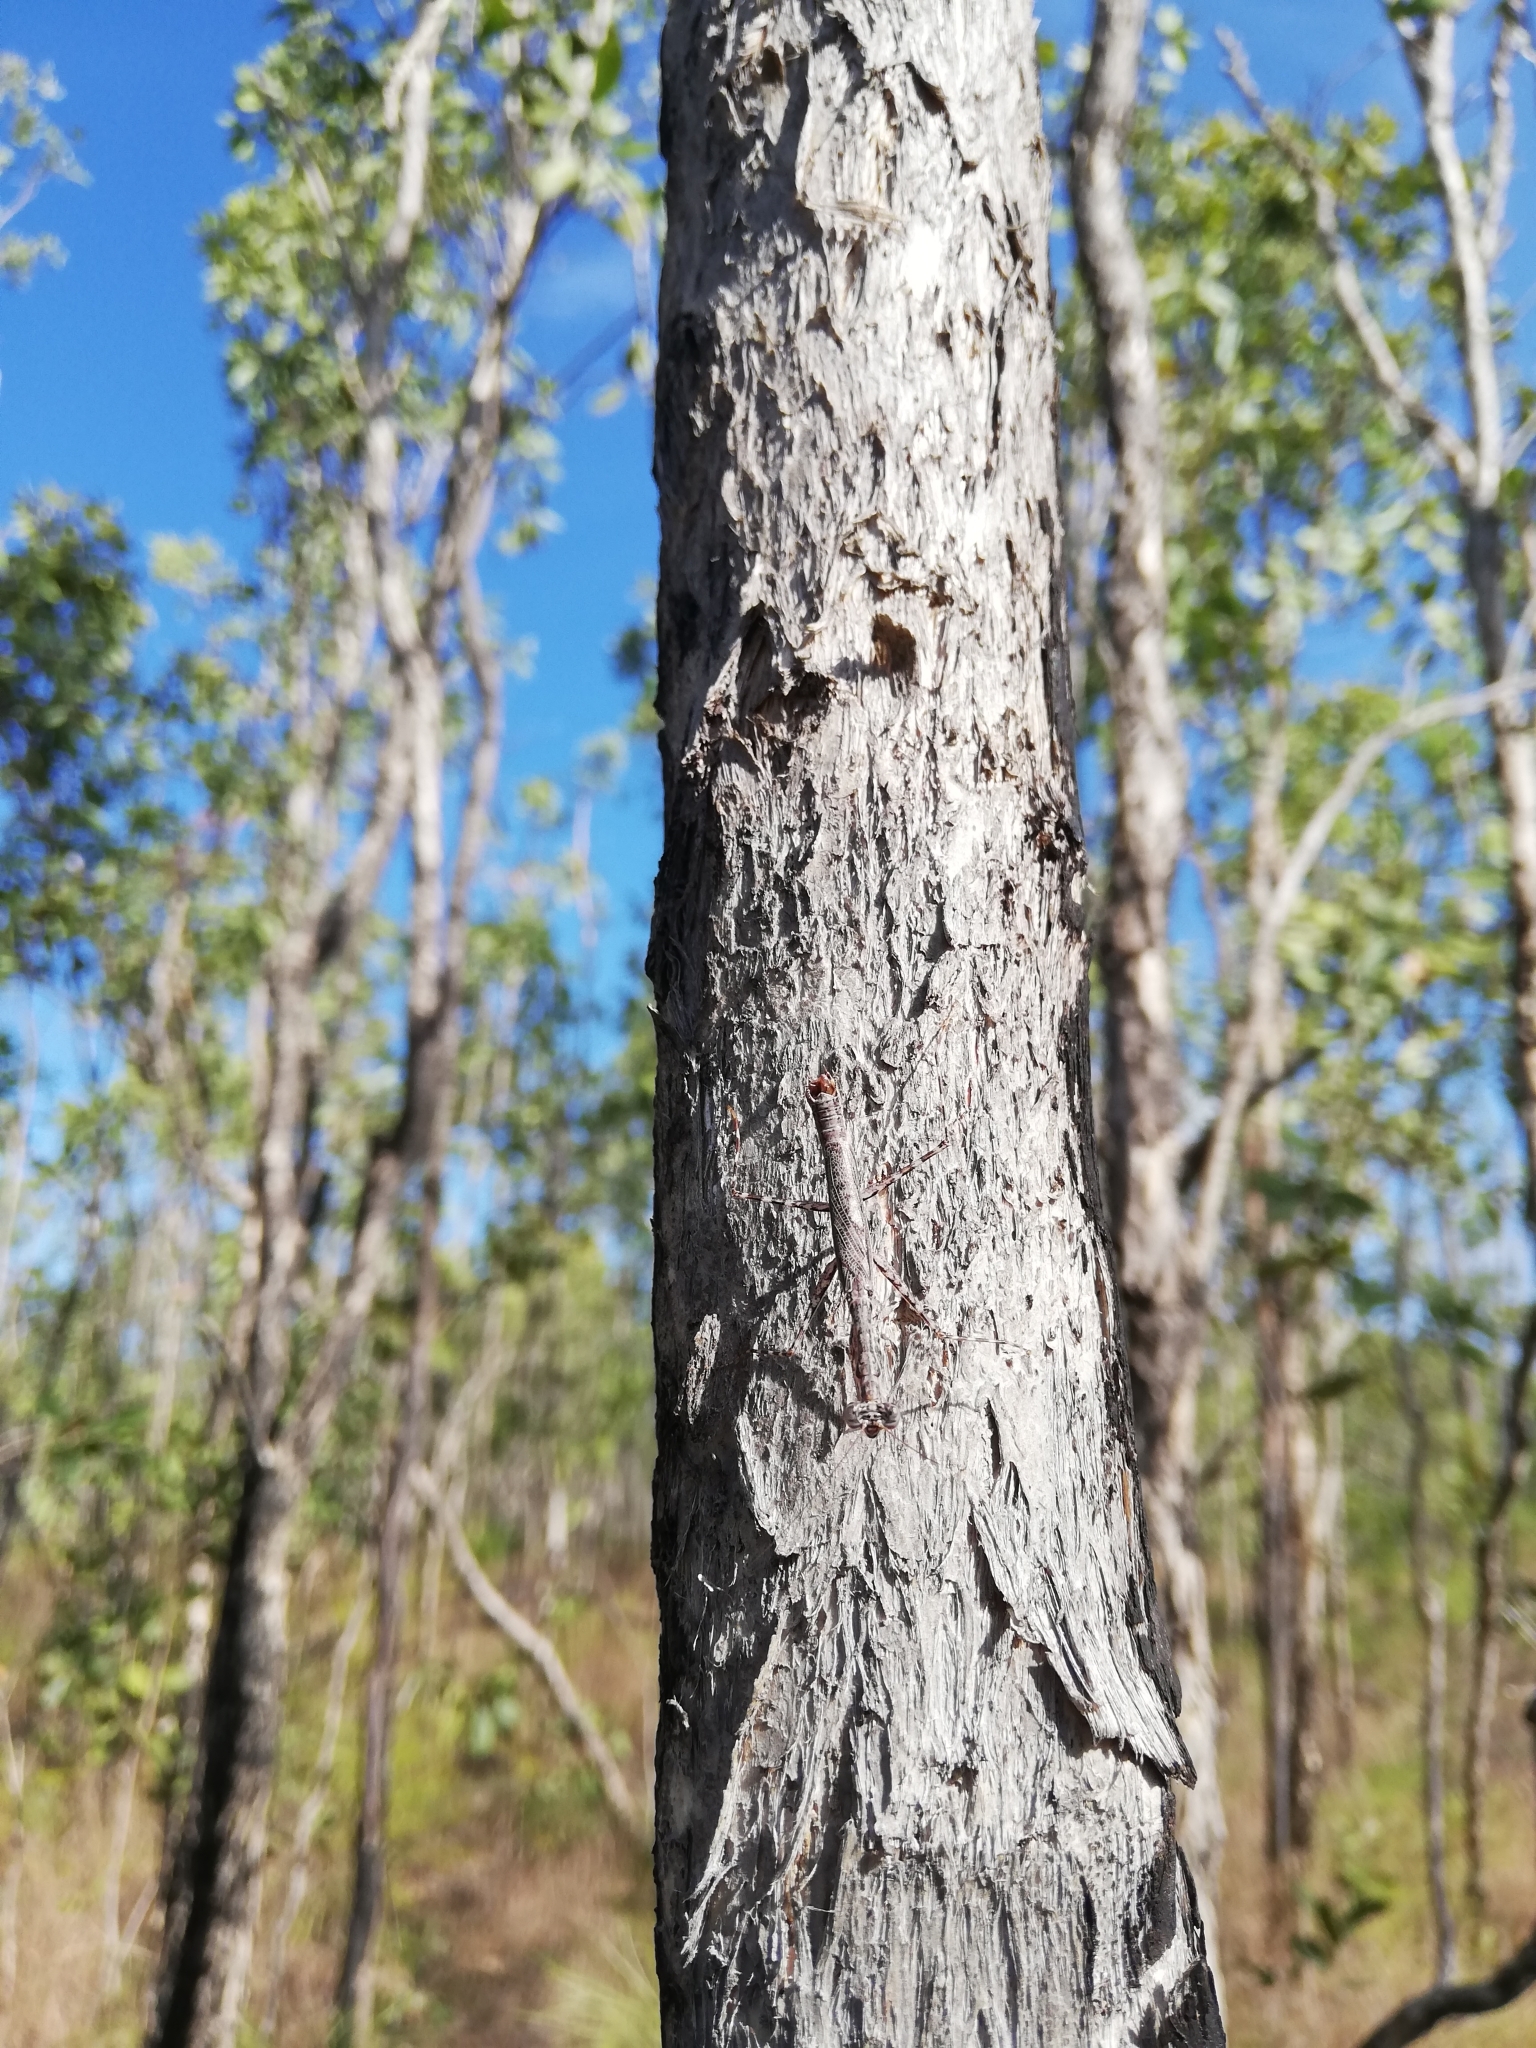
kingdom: Animalia
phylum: Arthropoda
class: Insecta
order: Mantodea
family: Nanomantidae
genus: Ciulfina
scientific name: Ciulfina biseriata
